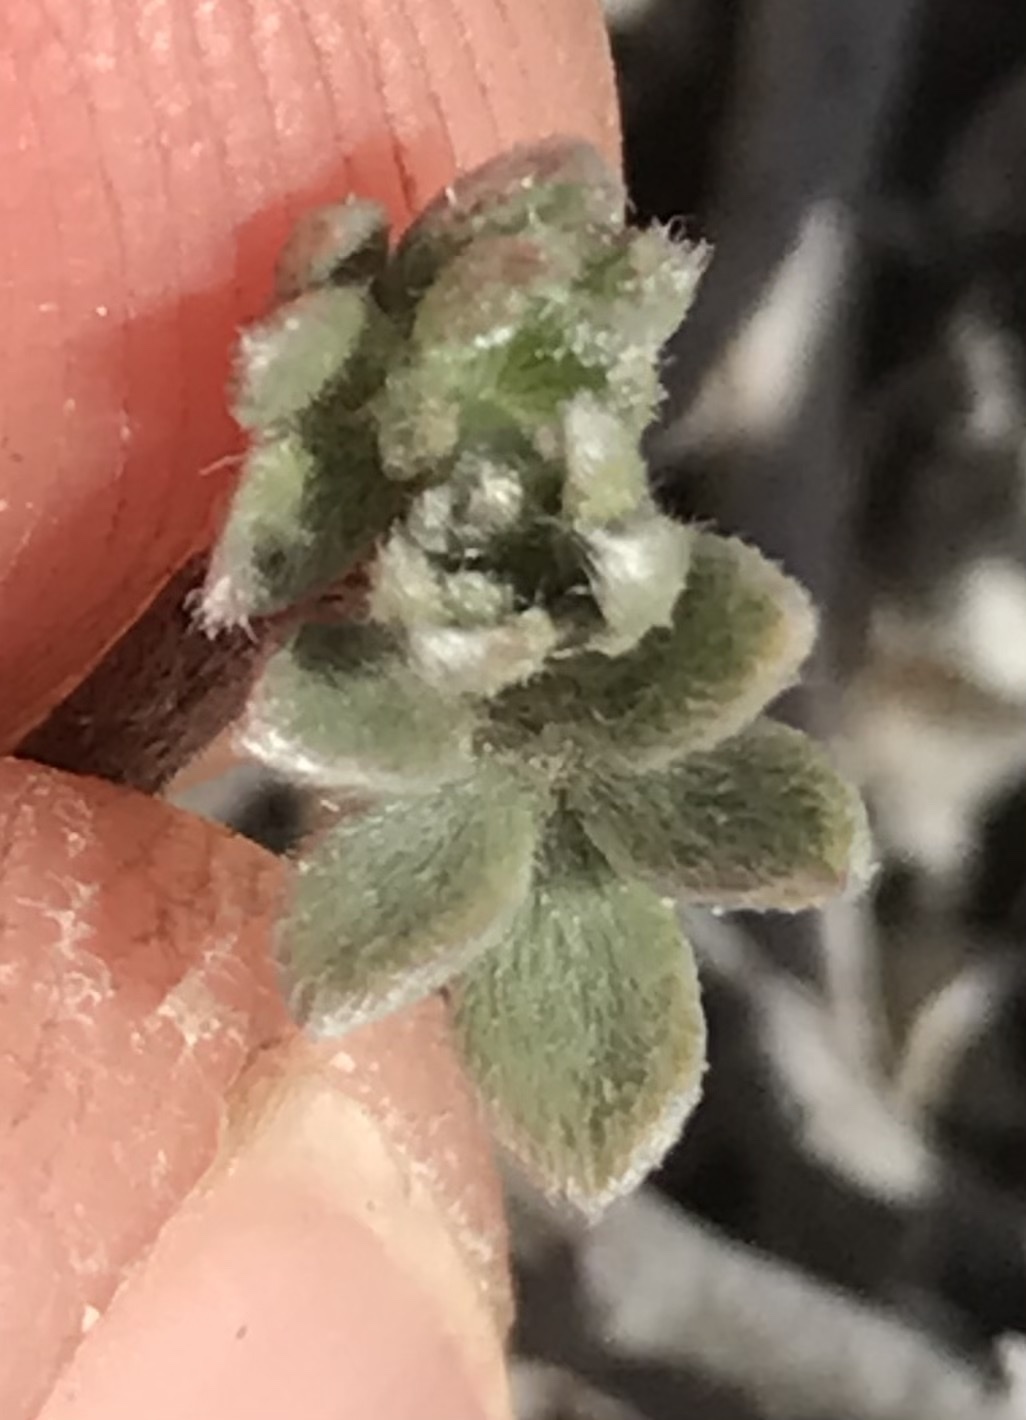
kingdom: Plantae
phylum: Tracheophyta
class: Magnoliopsida
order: Fabales
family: Fabaceae
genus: Acmispon
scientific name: Acmispon argophyllus
